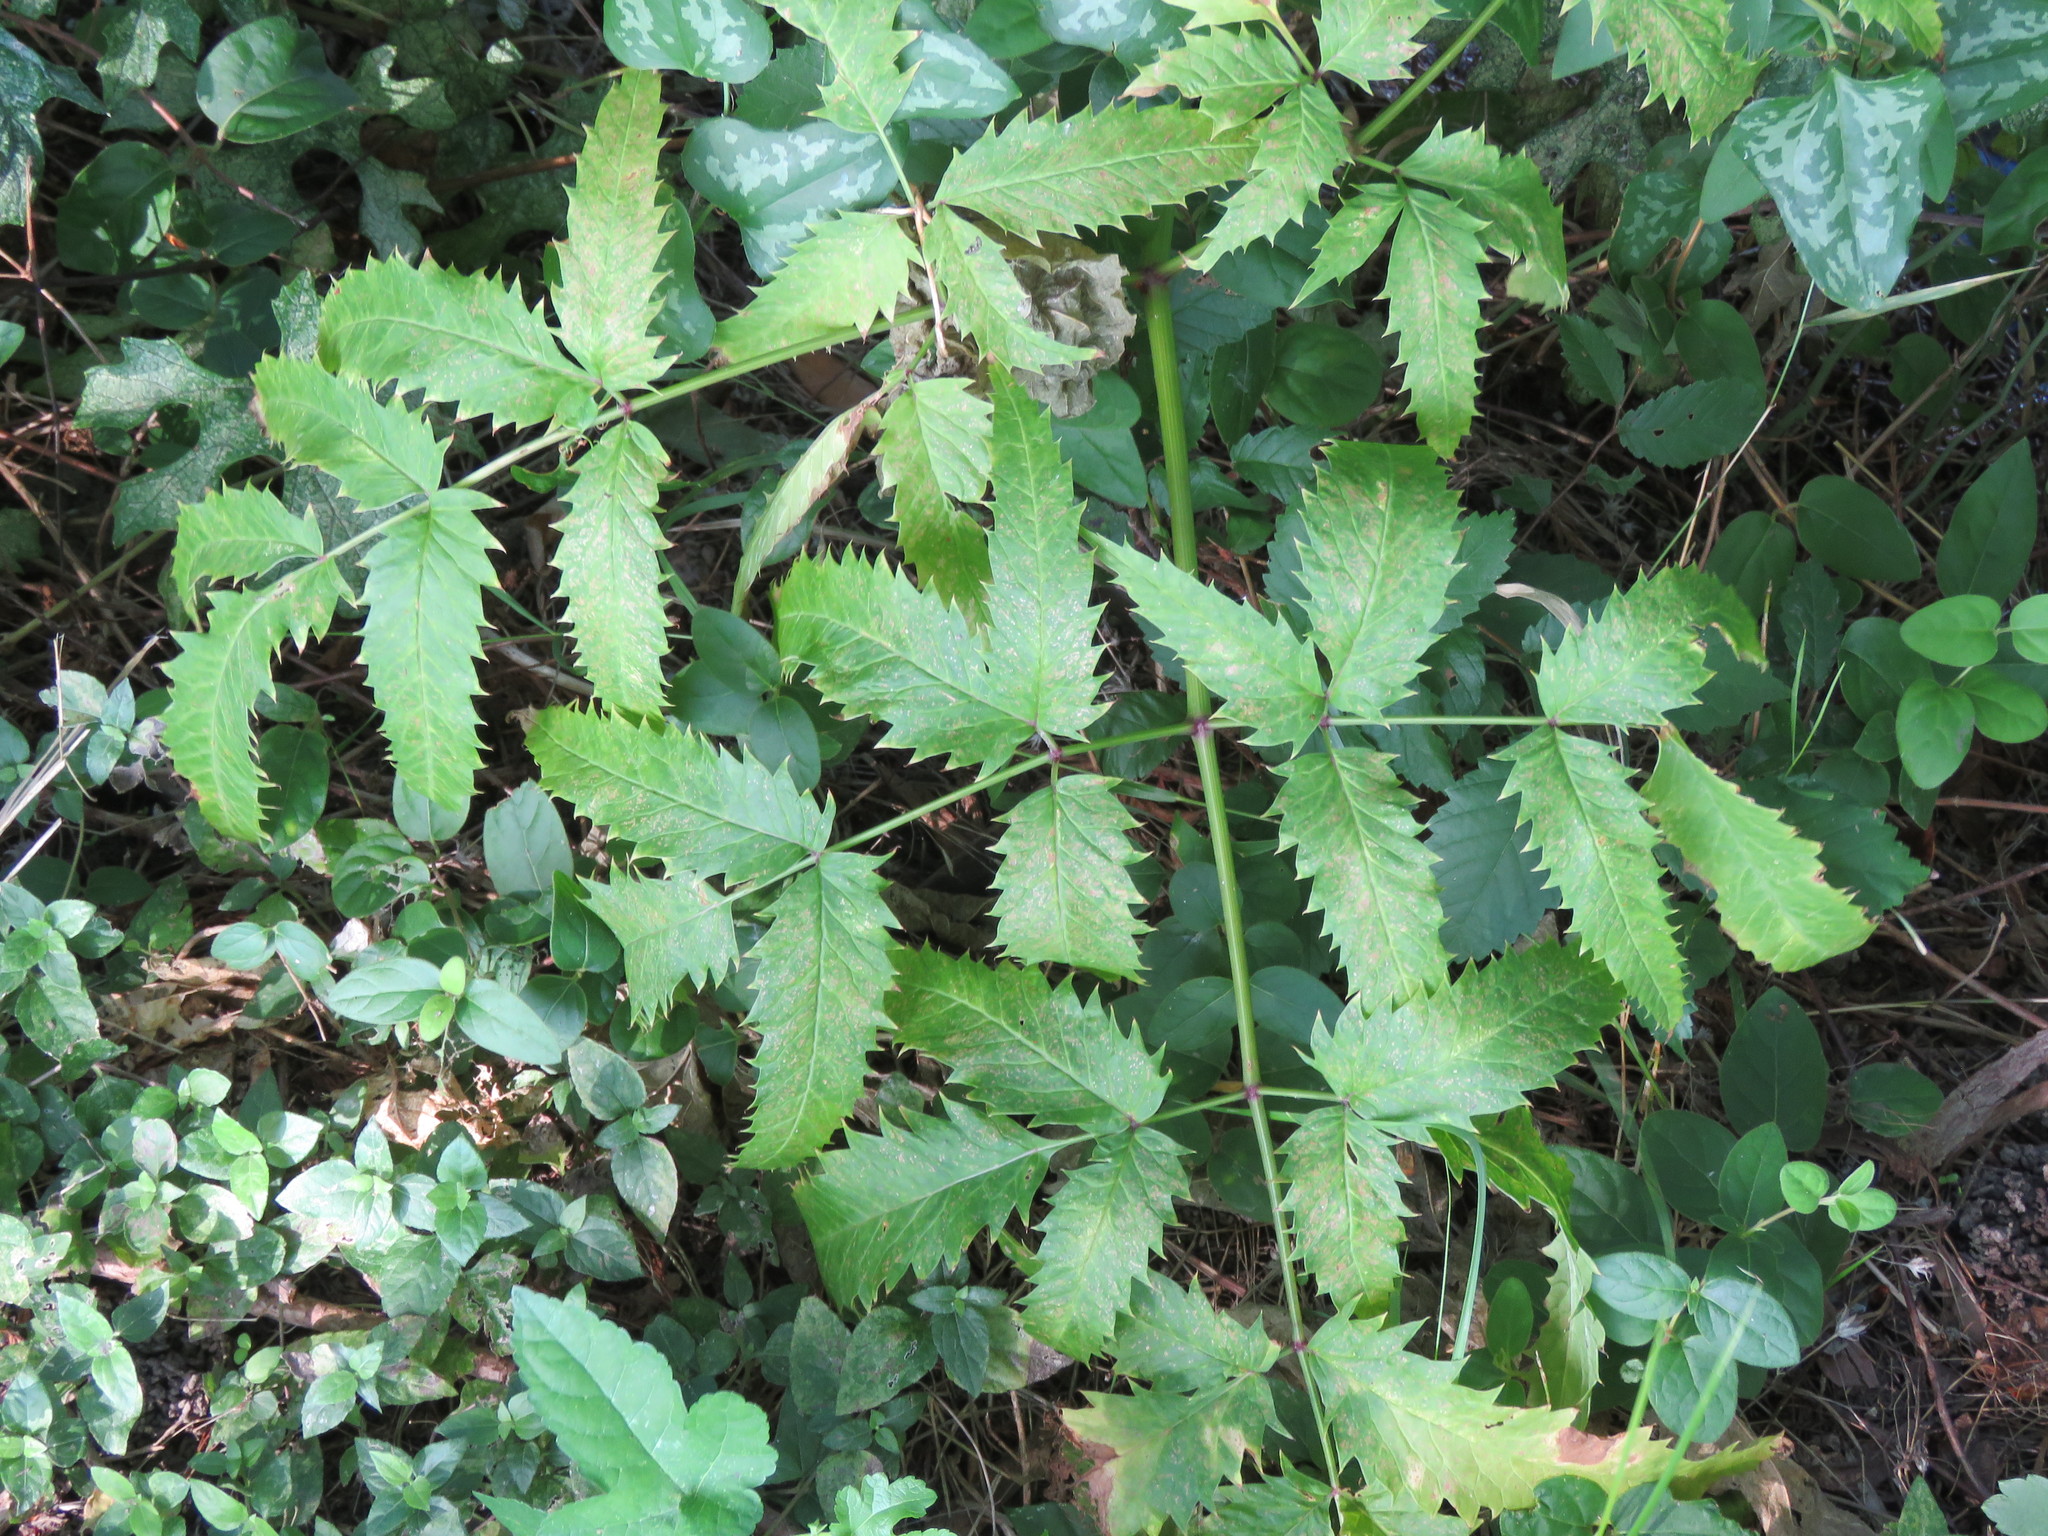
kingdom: Plantae
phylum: Tracheophyta
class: Magnoliopsida
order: Apiales
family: Apiaceae
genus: Cicuta
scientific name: Cicuta maculata
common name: Spotted cowbane
